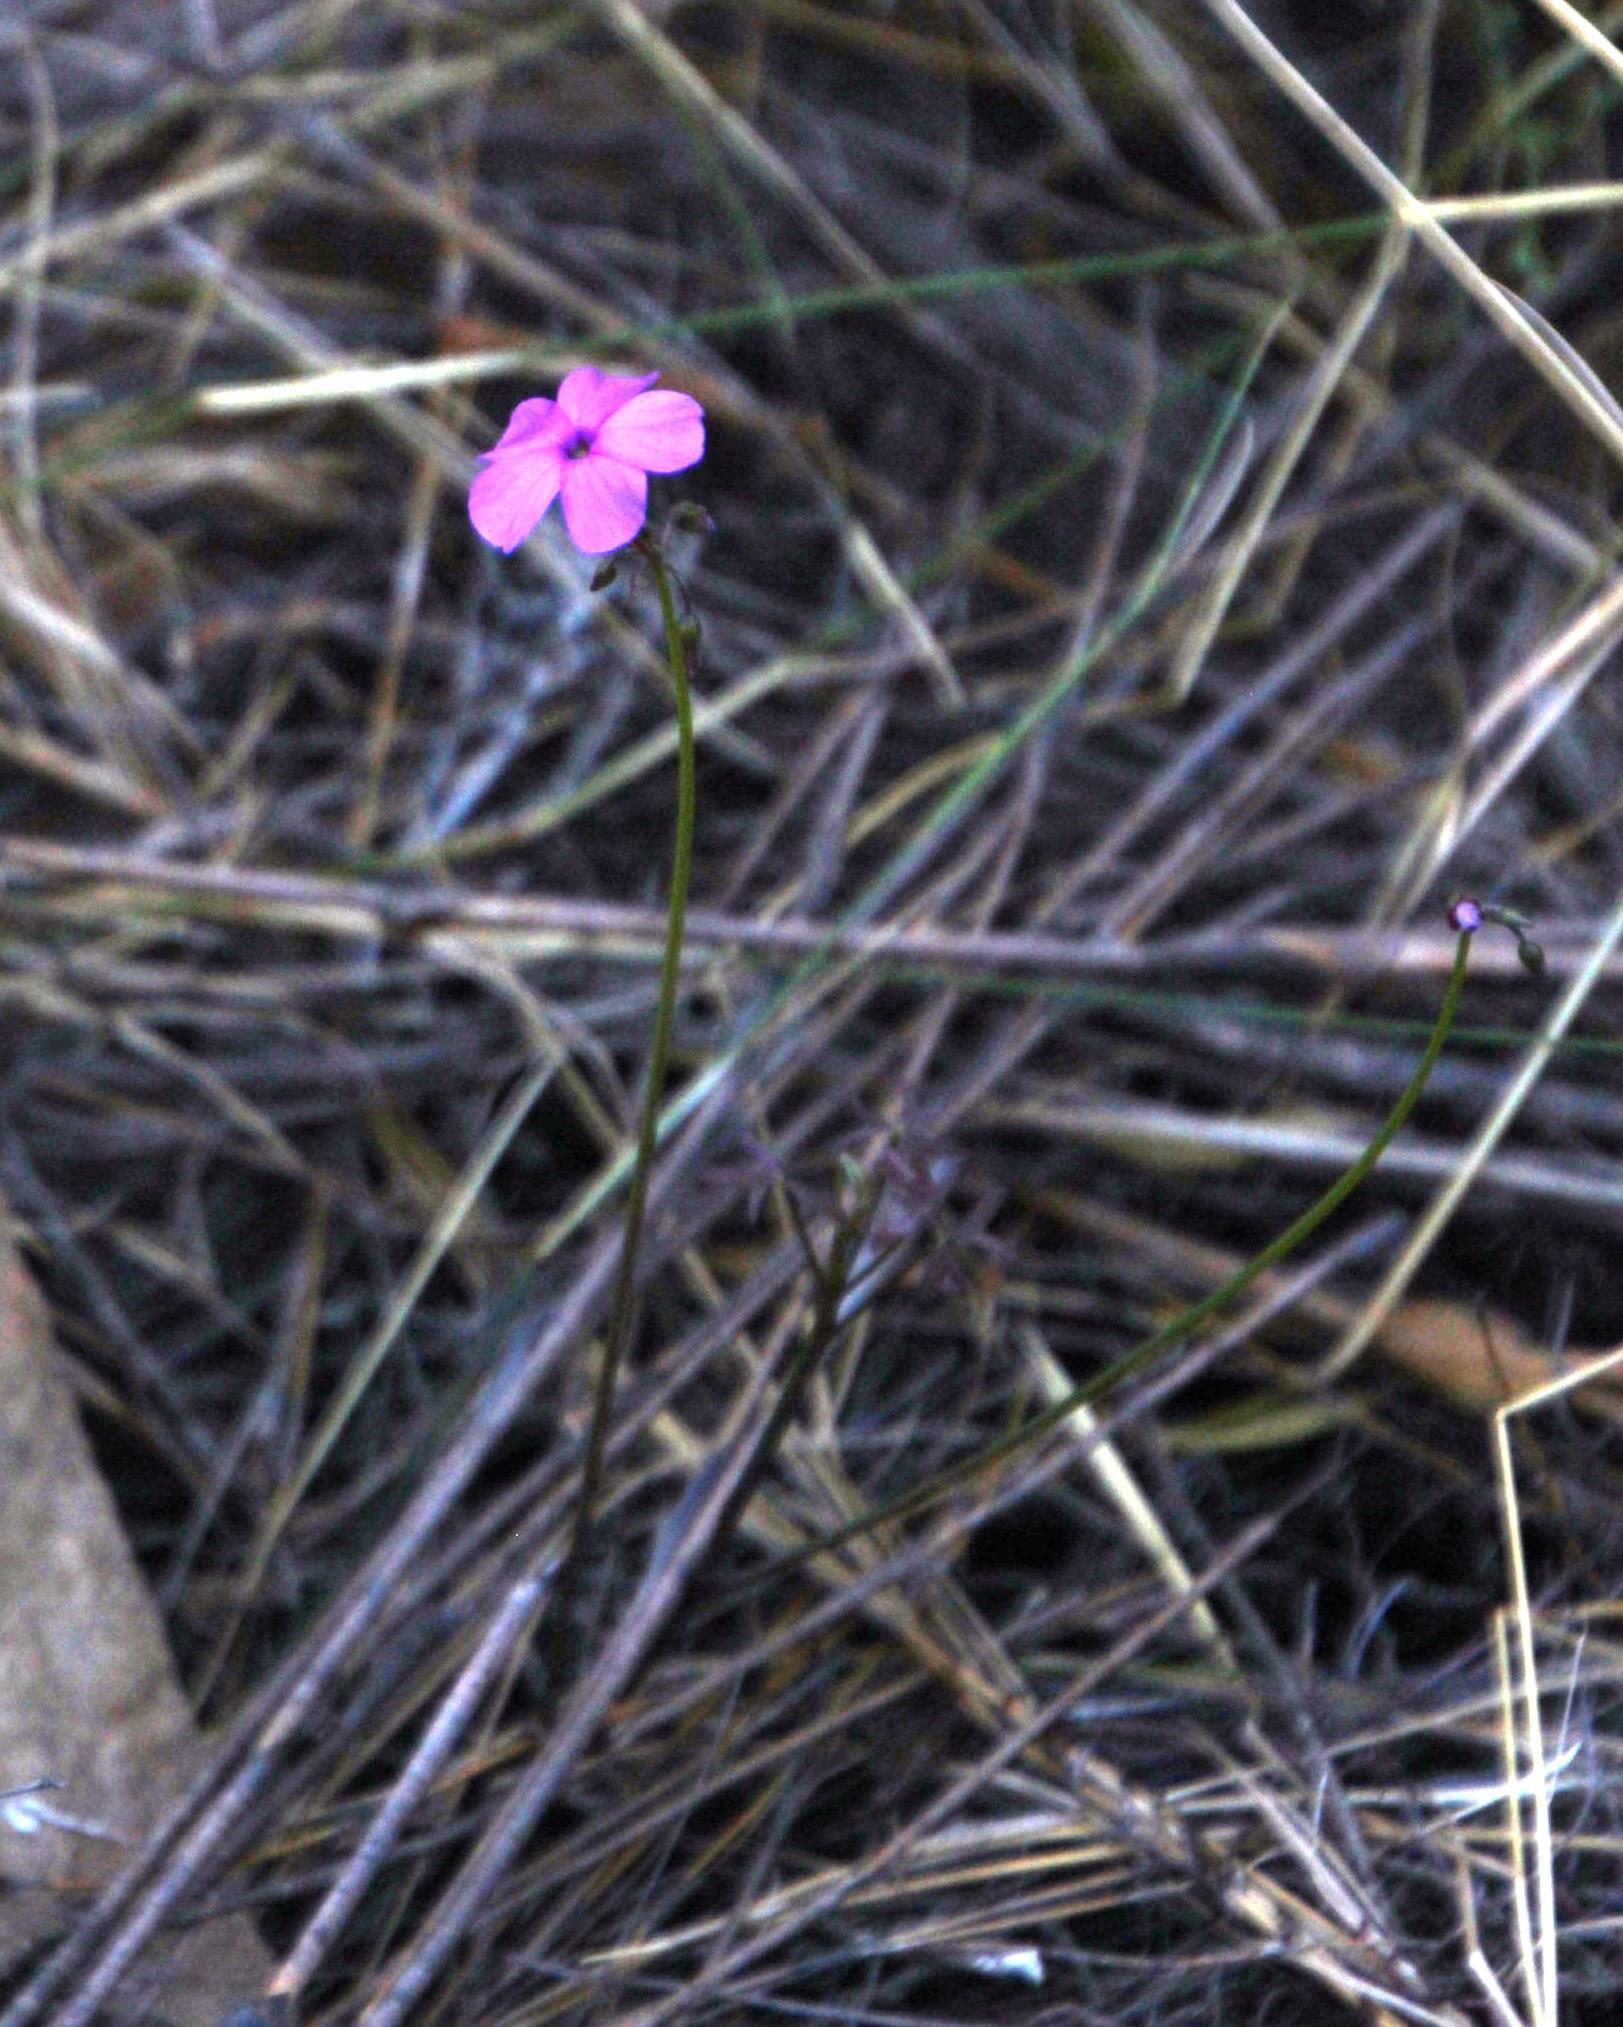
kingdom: Plantae
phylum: Tracheophyta
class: Magnoliopsida
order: Oxalidales
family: Oxalidaceae
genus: Oxalis
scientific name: Oxalis livida
